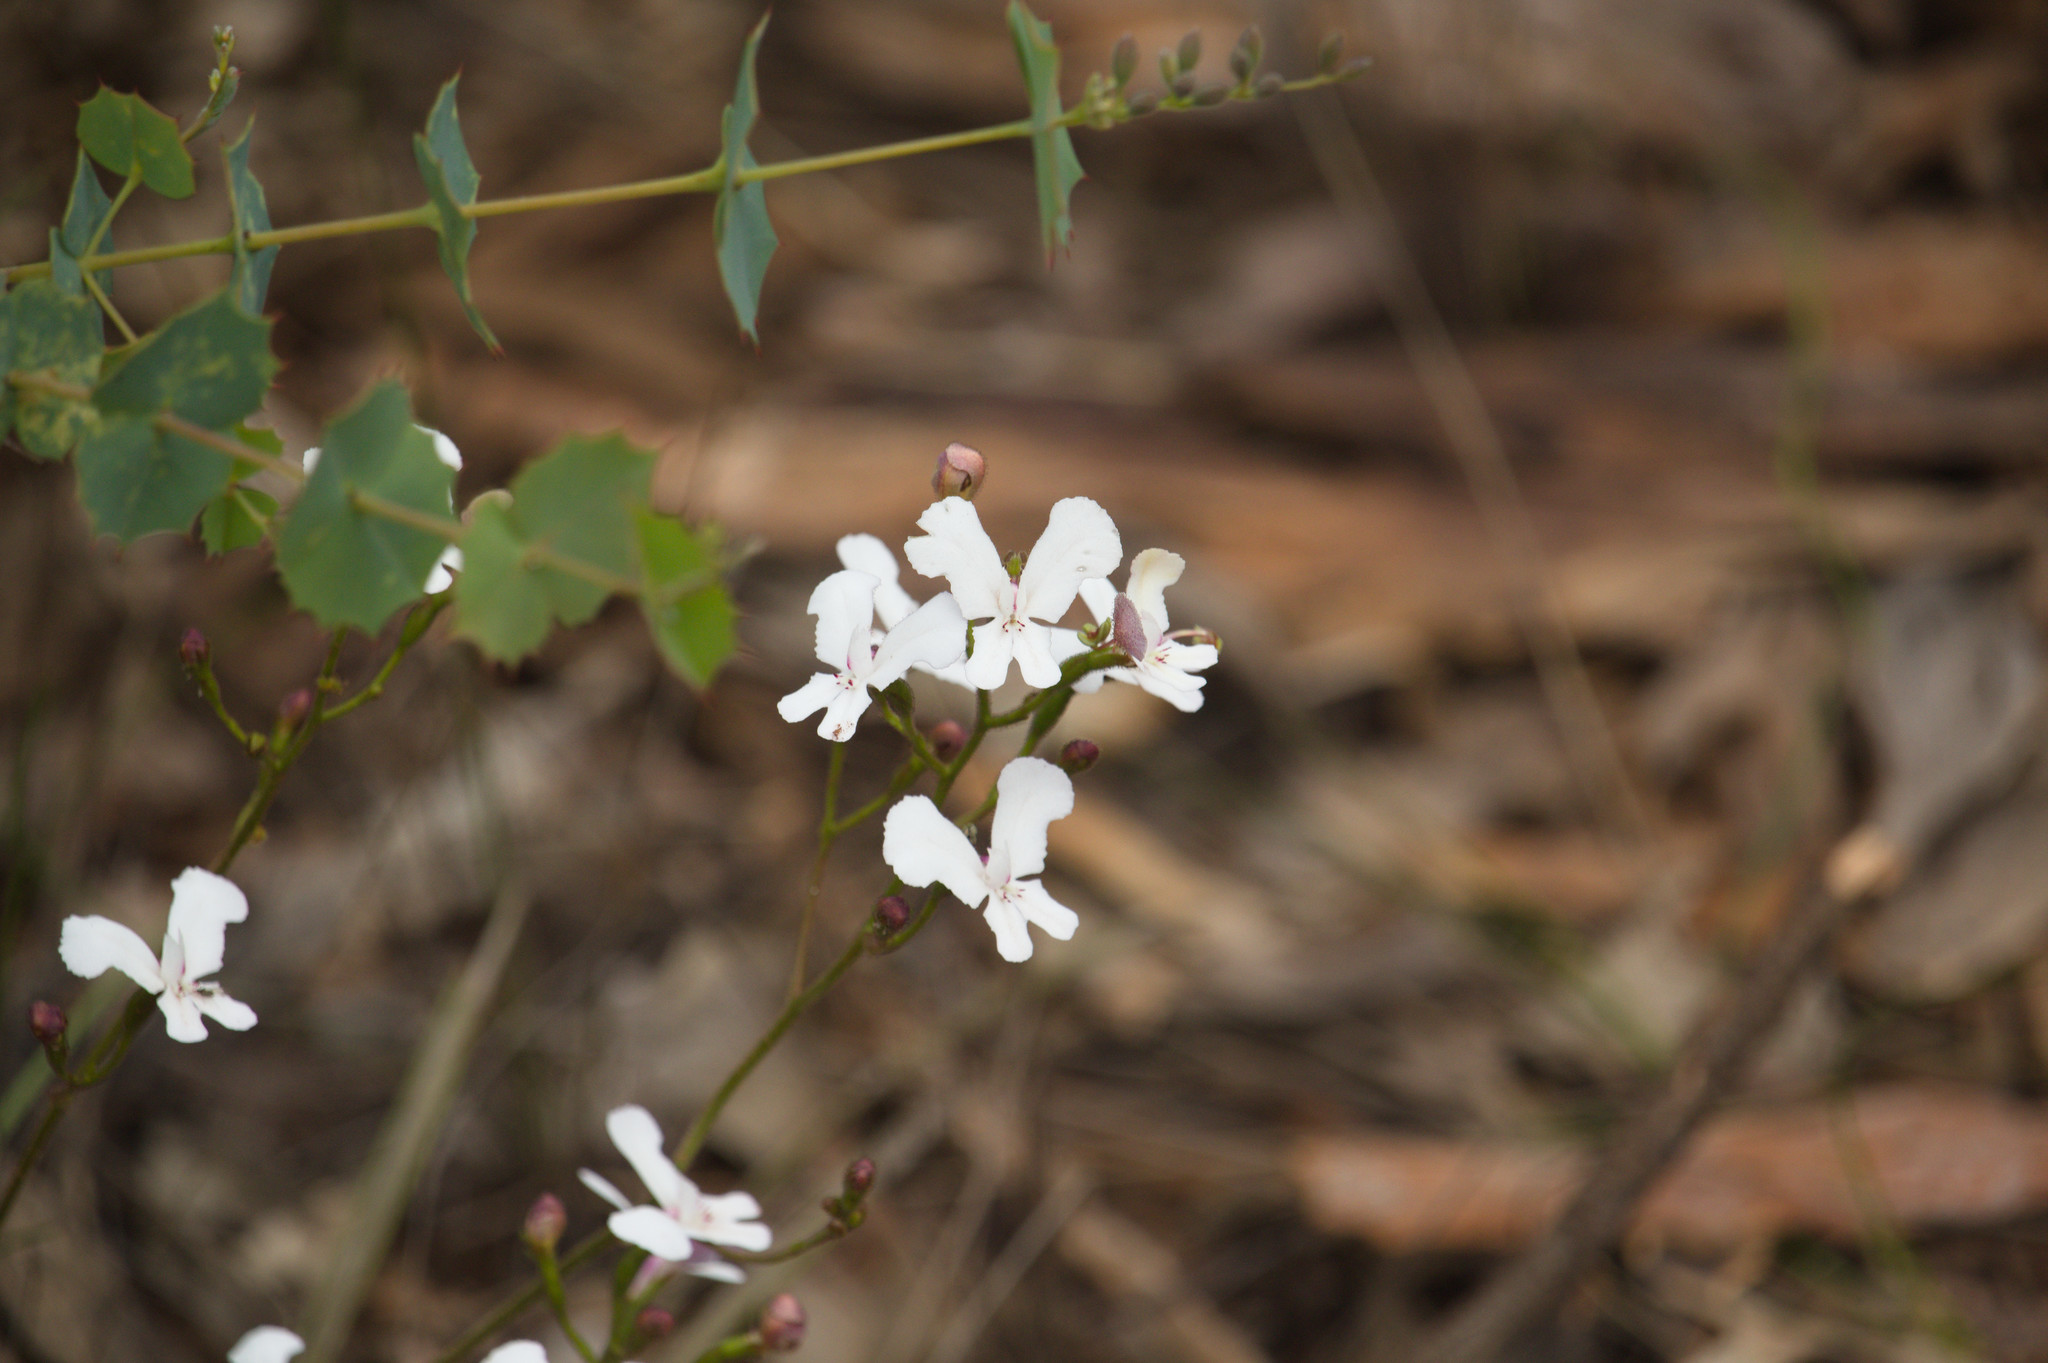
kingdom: Plantae
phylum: Tracheophyta
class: Magnoliopsida
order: Asterales
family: Stylidiaceae
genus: Stylidium
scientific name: Stylidium caricifolium
